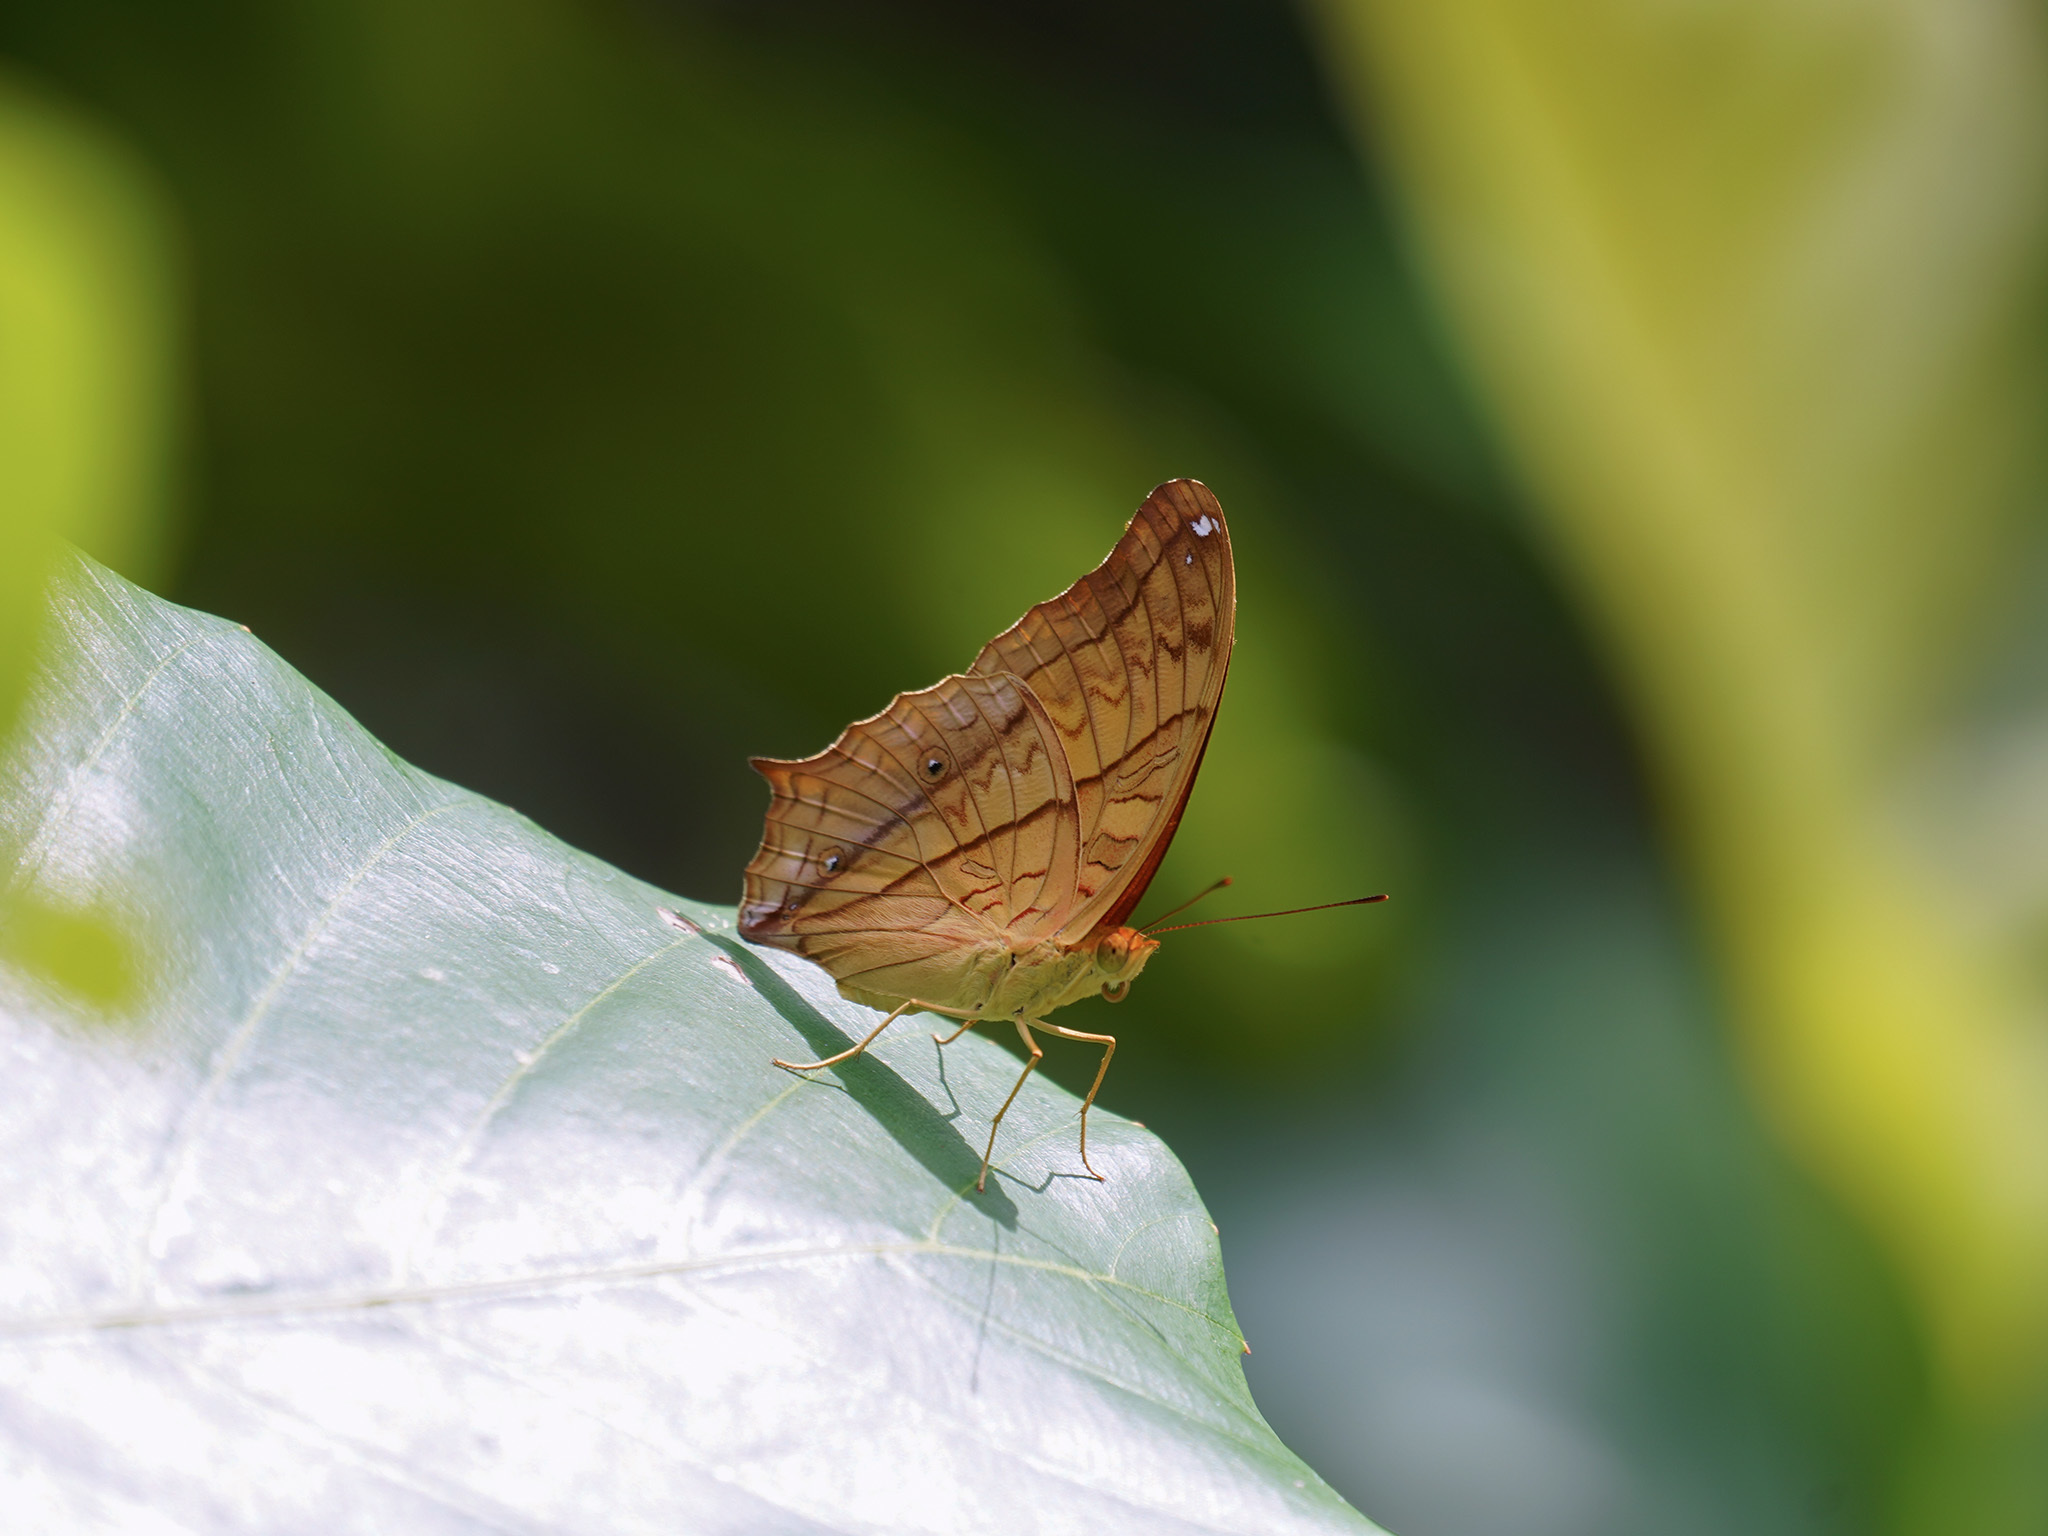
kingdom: Animalia
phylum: Arthropoda
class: Insecta
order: Lepidoptera
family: Nymphalidae
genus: Vindula
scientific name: Vindula deione
